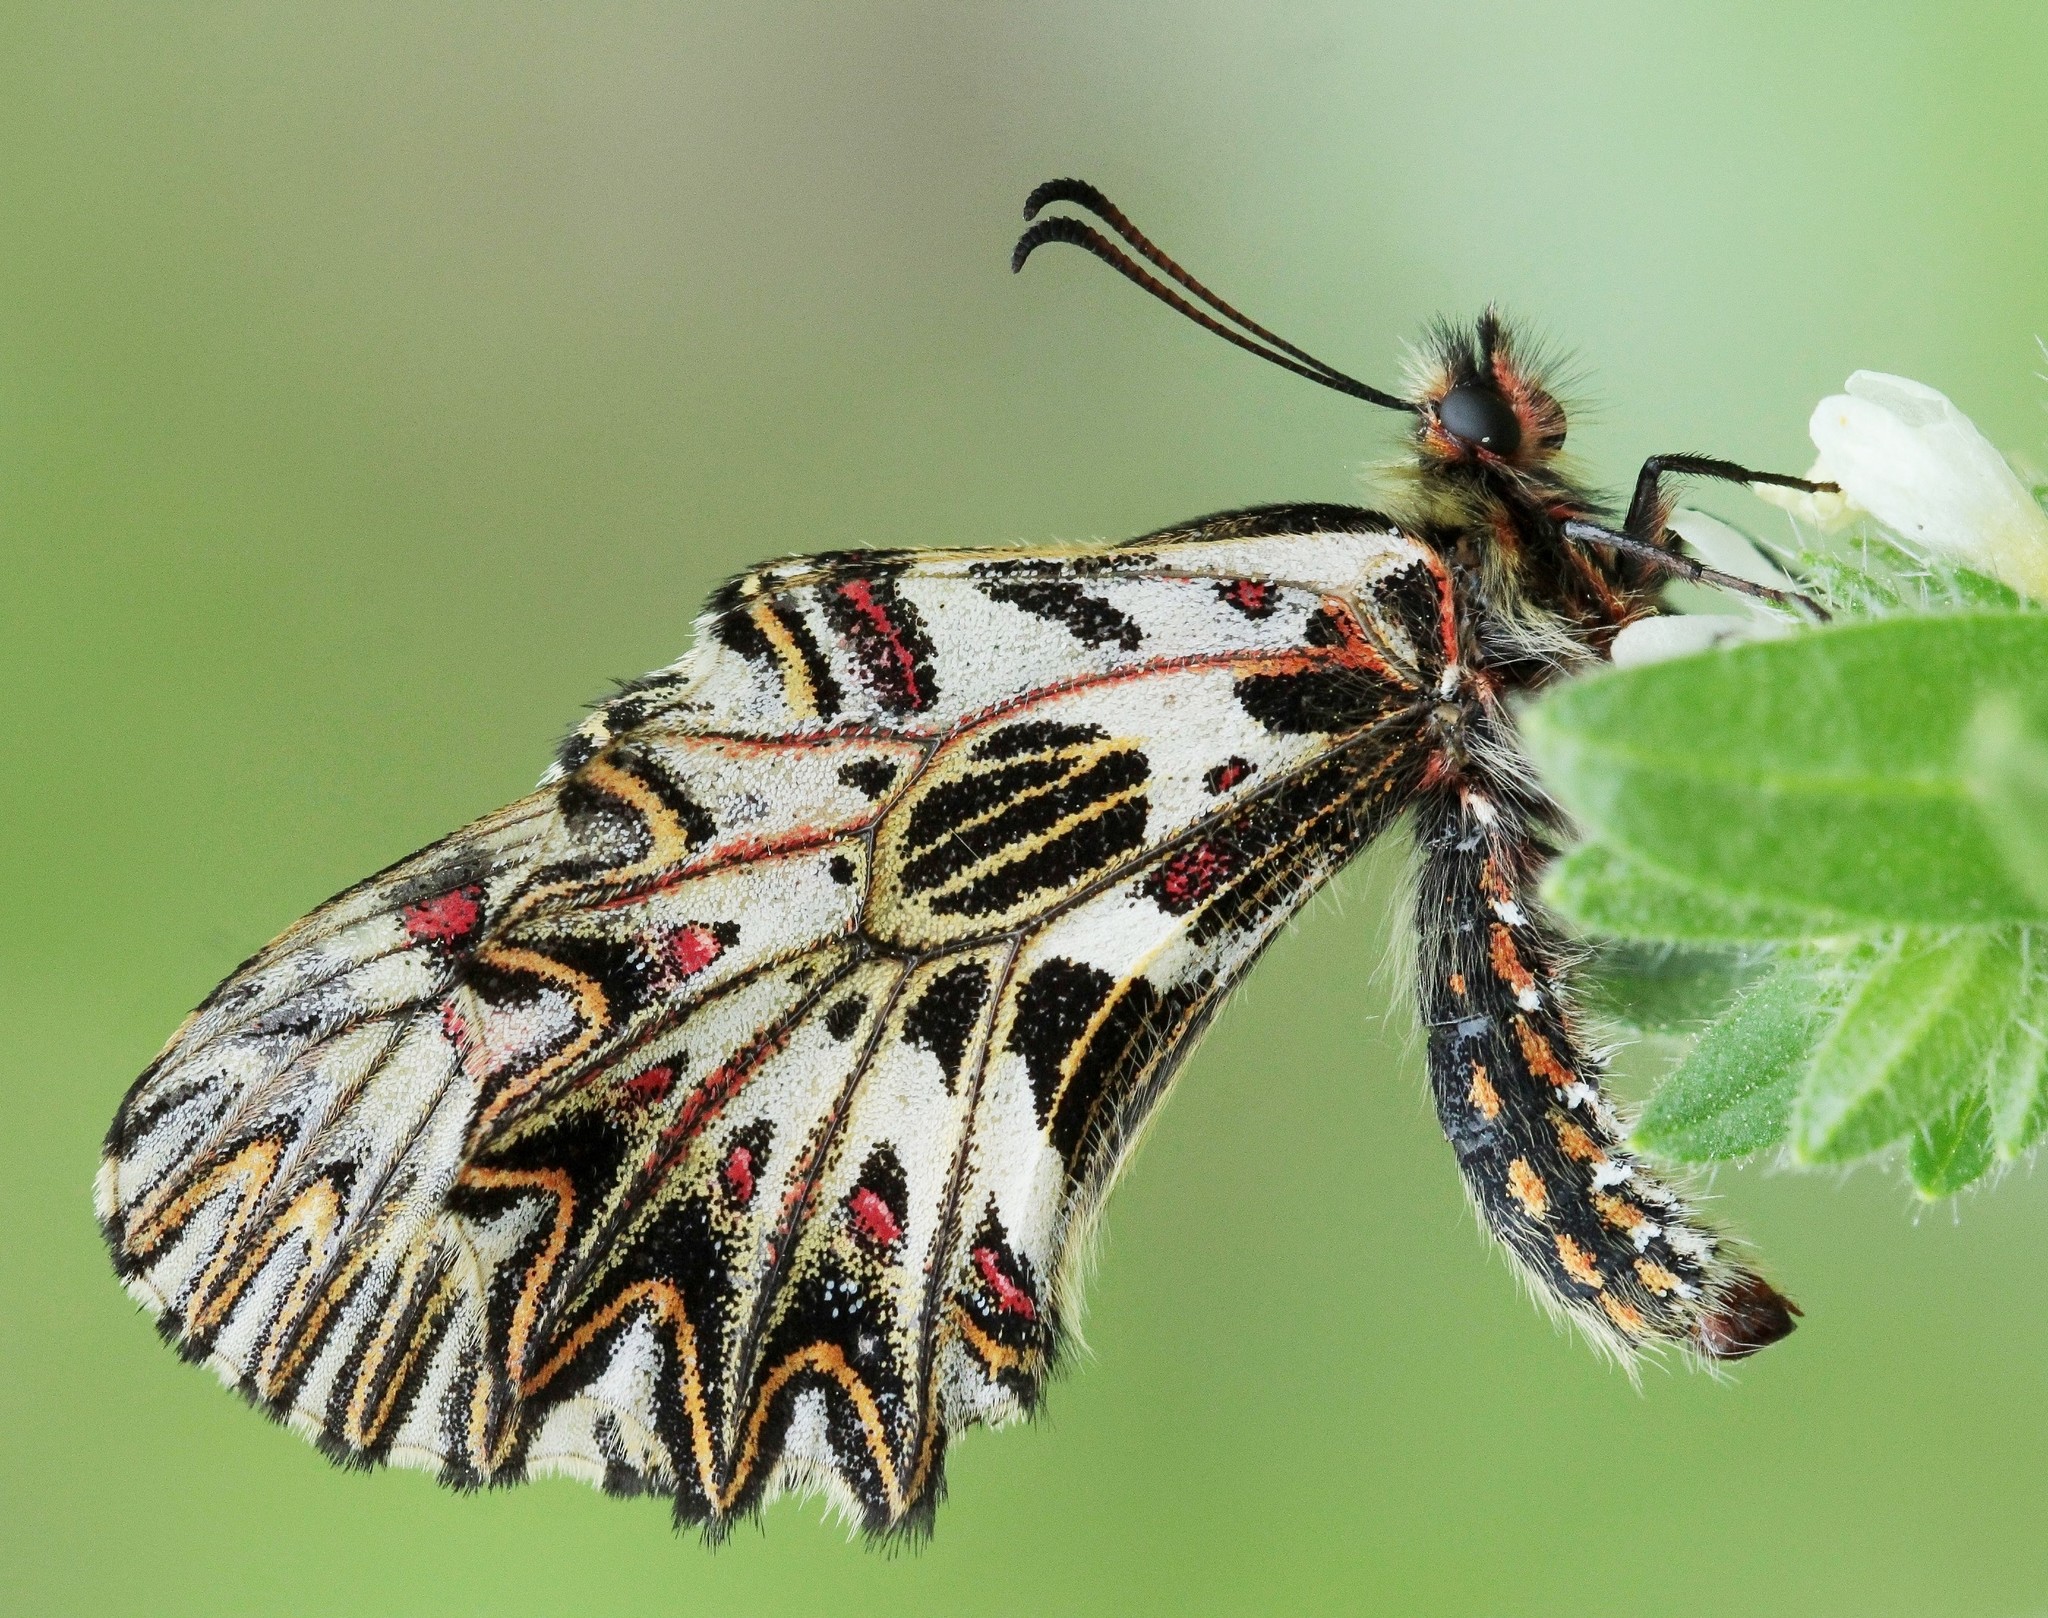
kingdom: Animalia
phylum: Arthropoda
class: Insecta
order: Lepidoptera
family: Papilionidae
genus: Zerynthia
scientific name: Zerynthia polyxena
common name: Southern festoon
